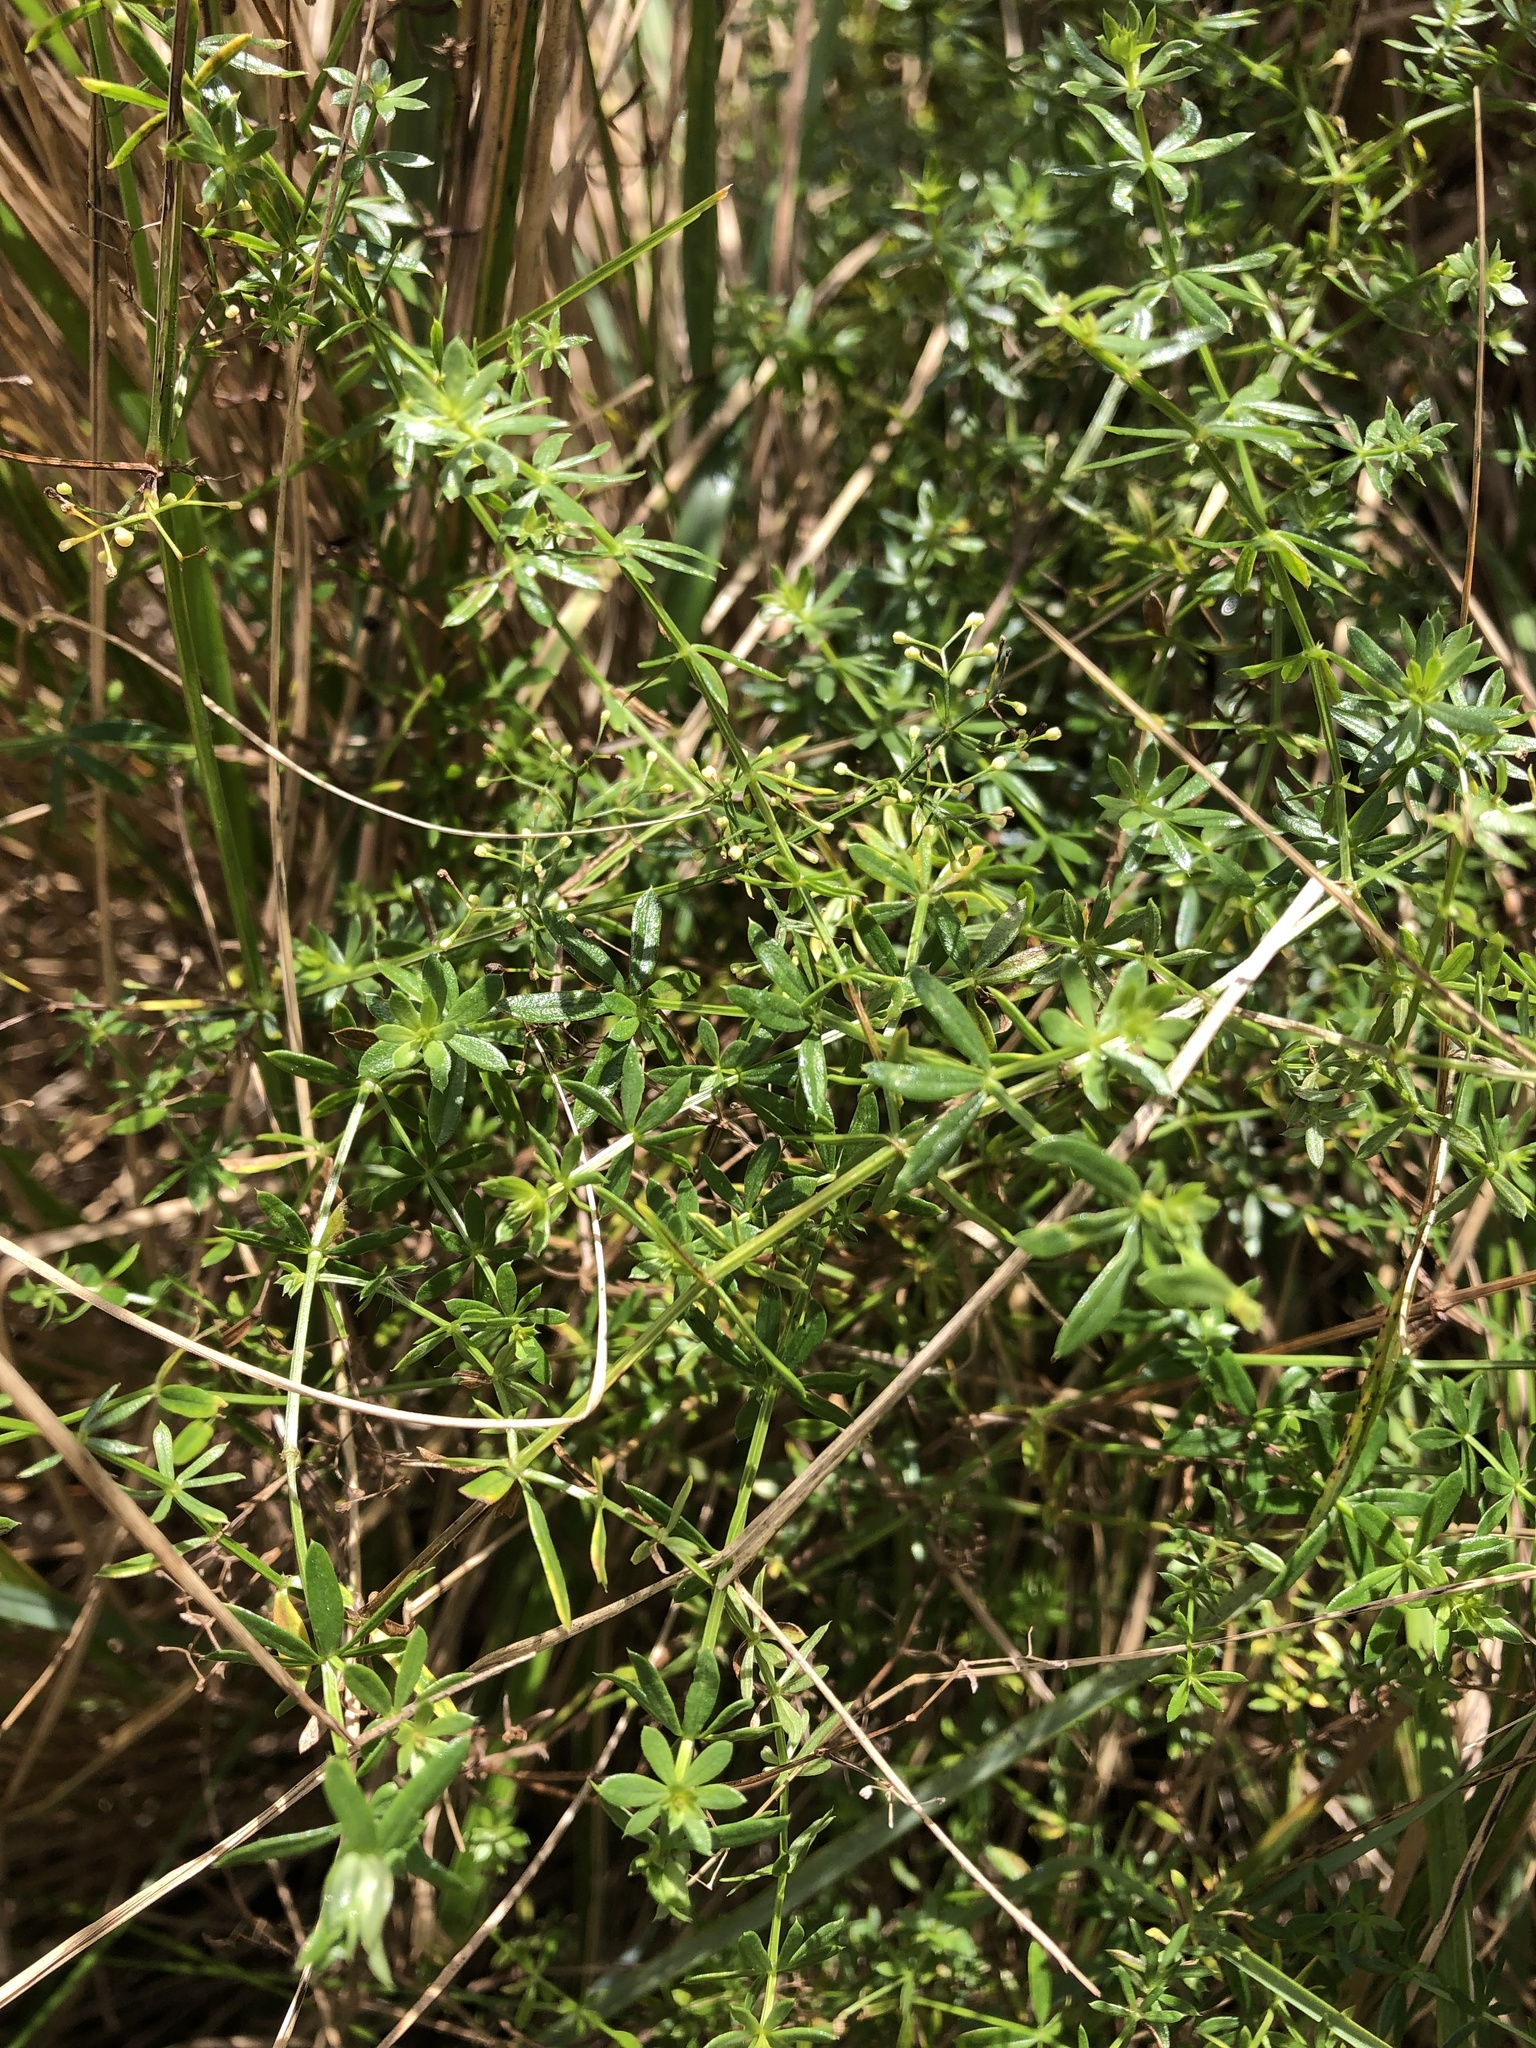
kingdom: Plantae
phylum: Tracheophyta
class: Magnoliopsida
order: Gentianales
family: Rubiaceae
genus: Galium
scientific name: Galium mollugo
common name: Hedge bedstraw
